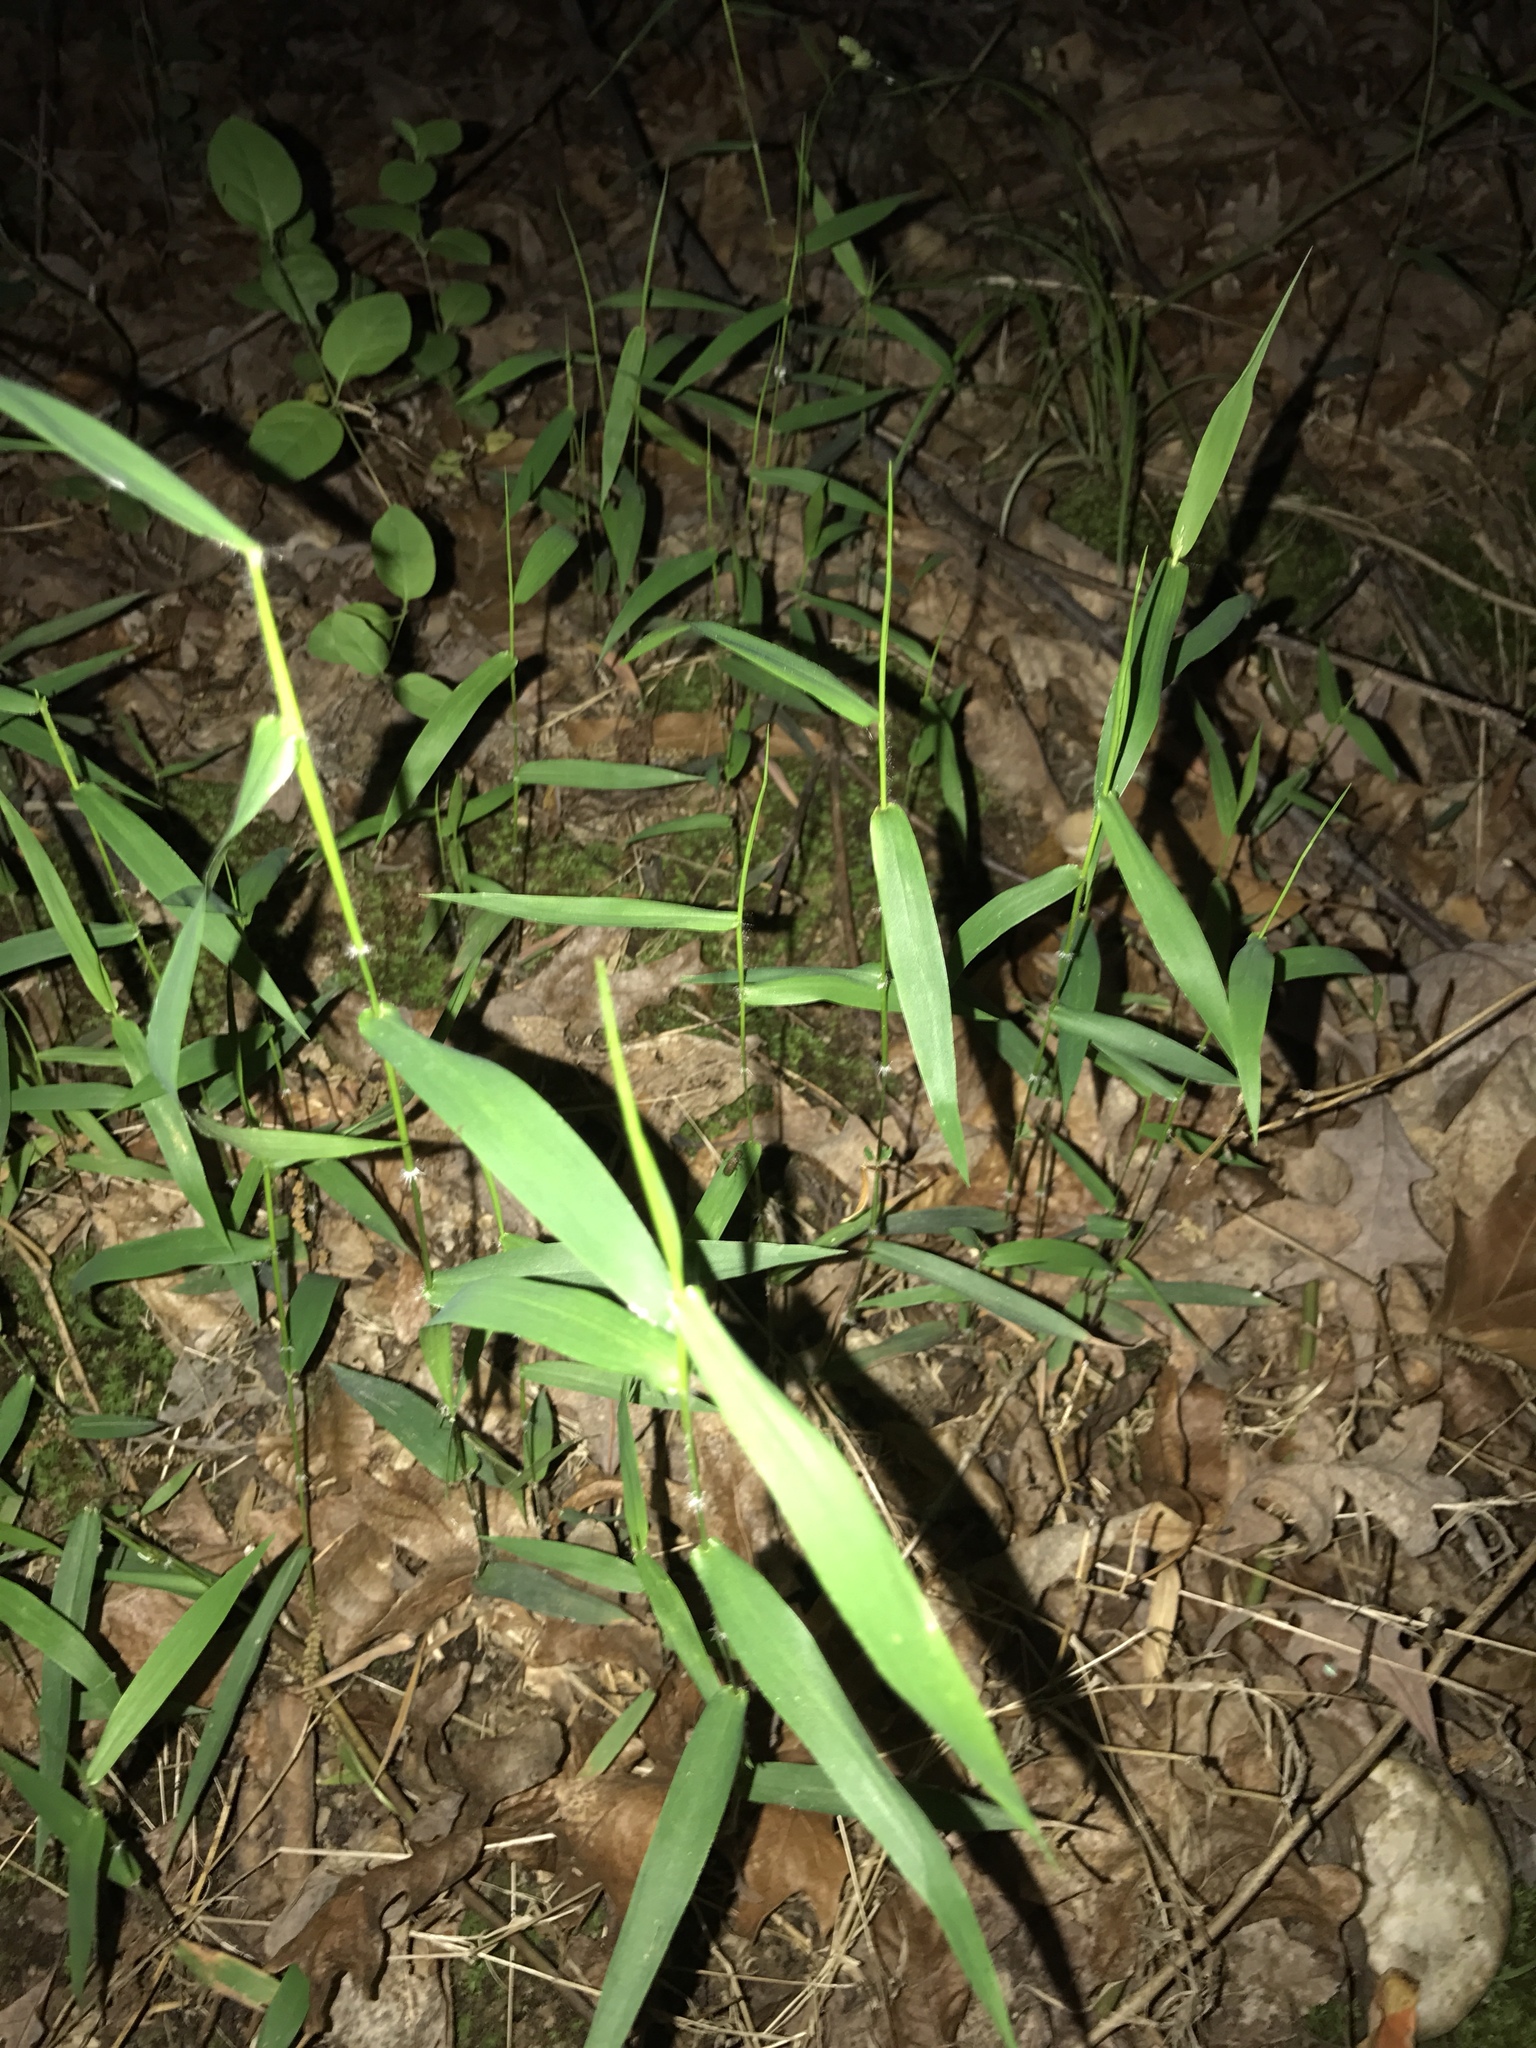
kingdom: Plantae
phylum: Tracheophyta
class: Liliopsida
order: Poales
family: Poaceae
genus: Leersia
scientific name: Leersia virginica
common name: White cutgrass
